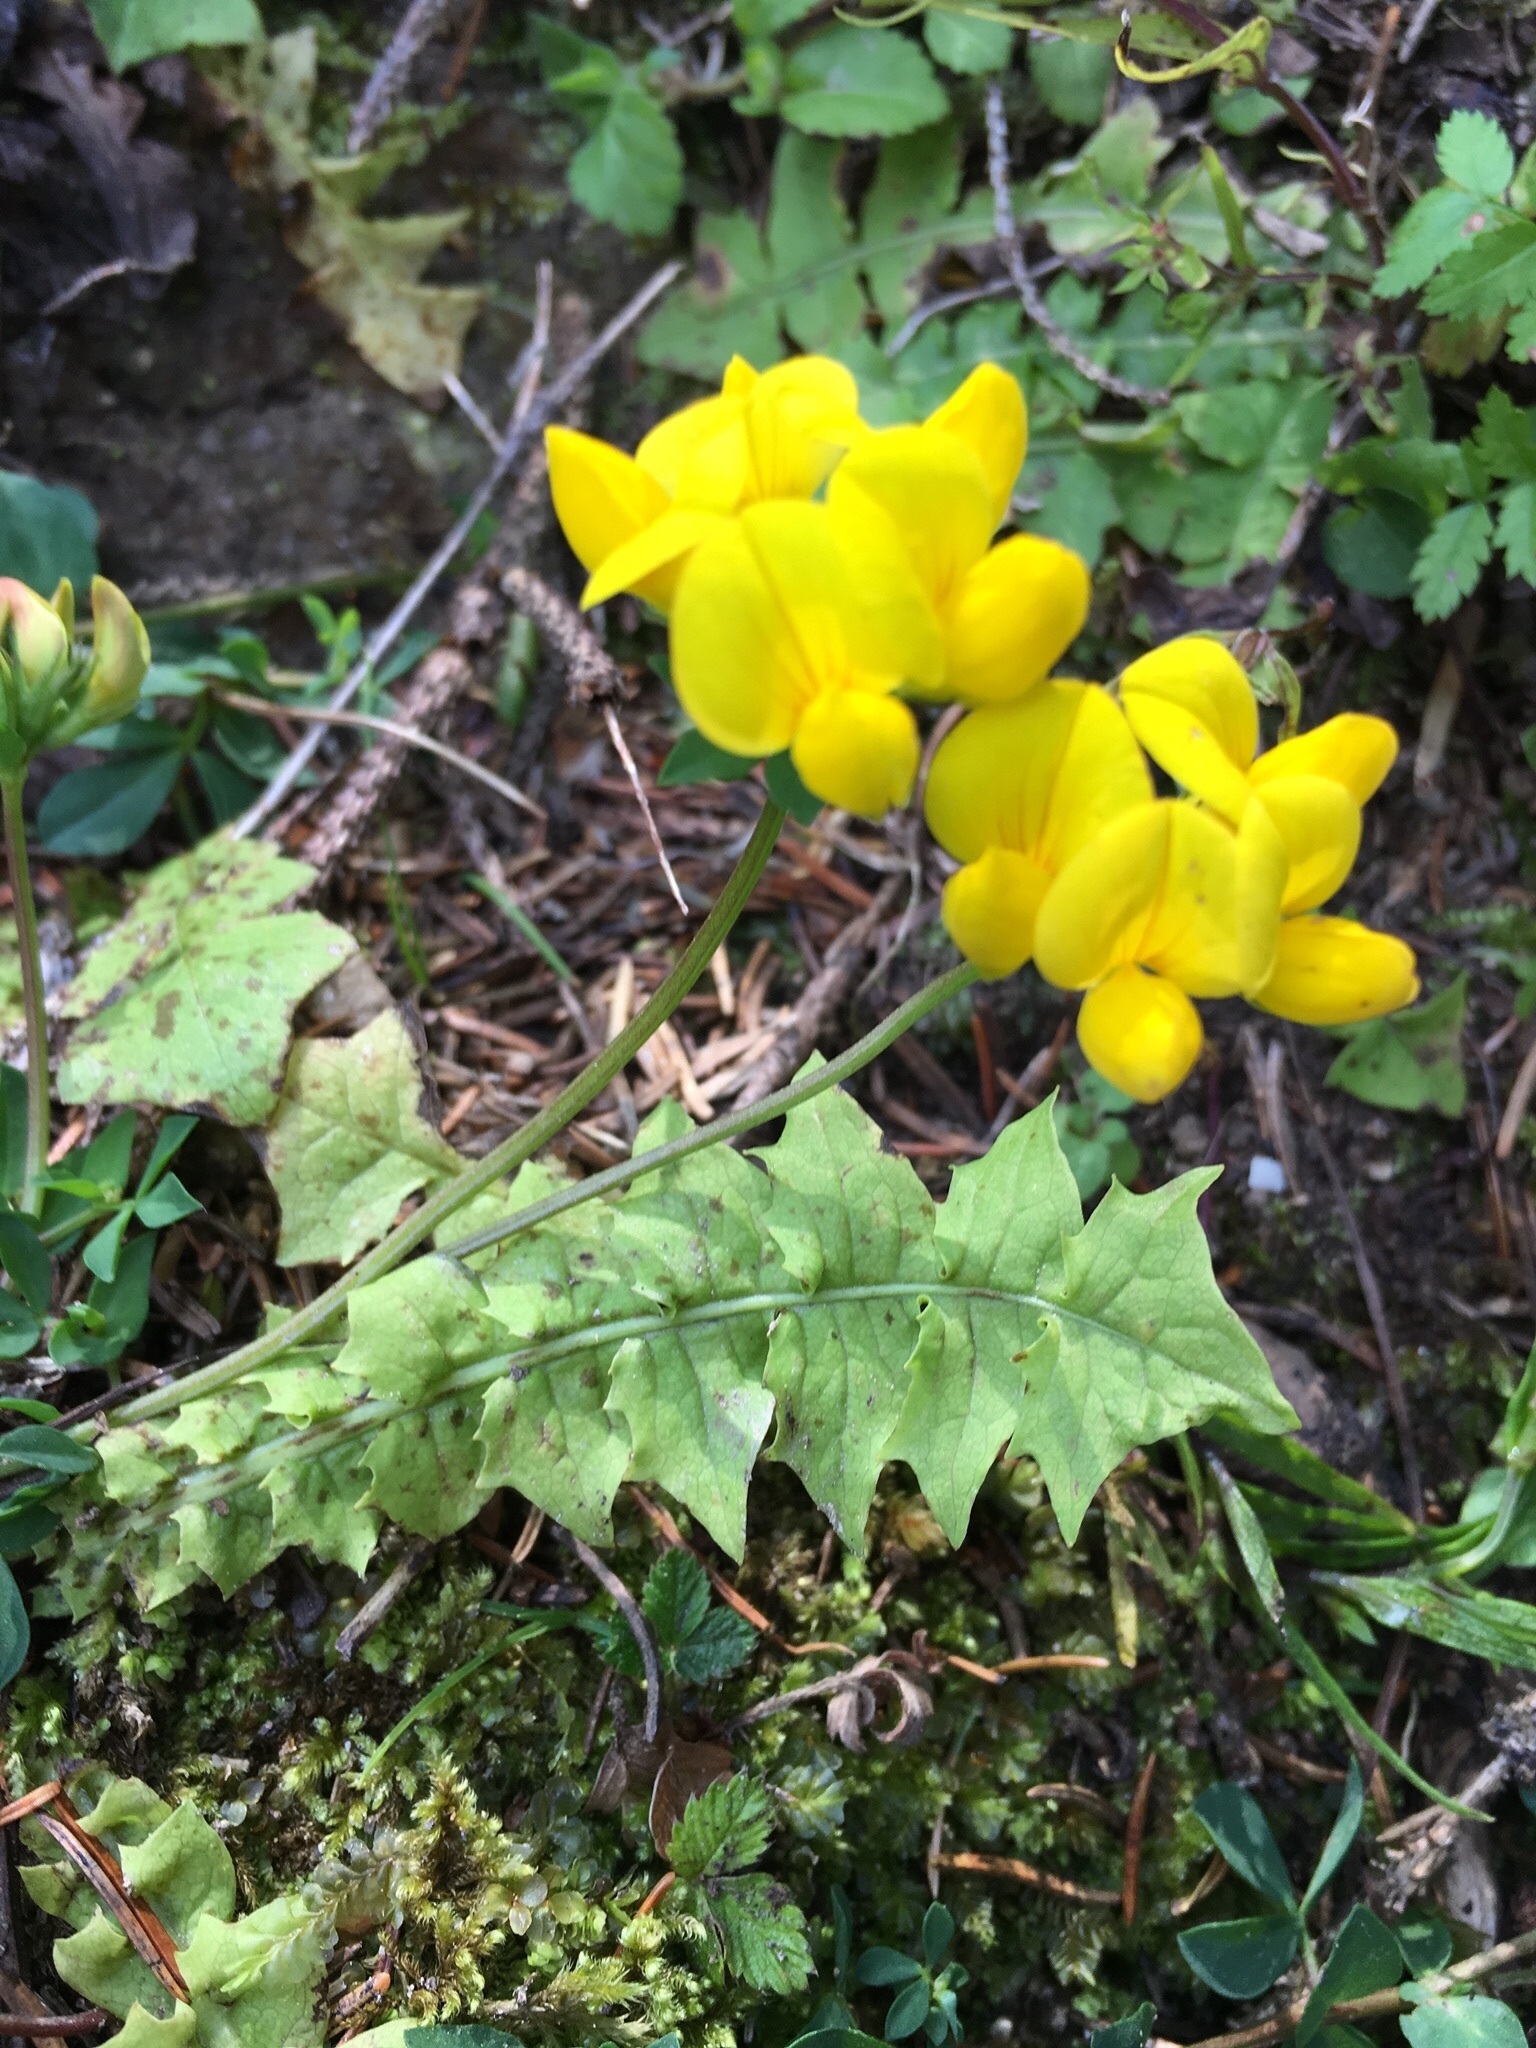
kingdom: Plantae
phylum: Tracheophyta
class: Magnoliopsida
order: Fabales
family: Fabaceae
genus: Lotus
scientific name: Lotus corniculatus
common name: Common bird's-foot-trefoil
